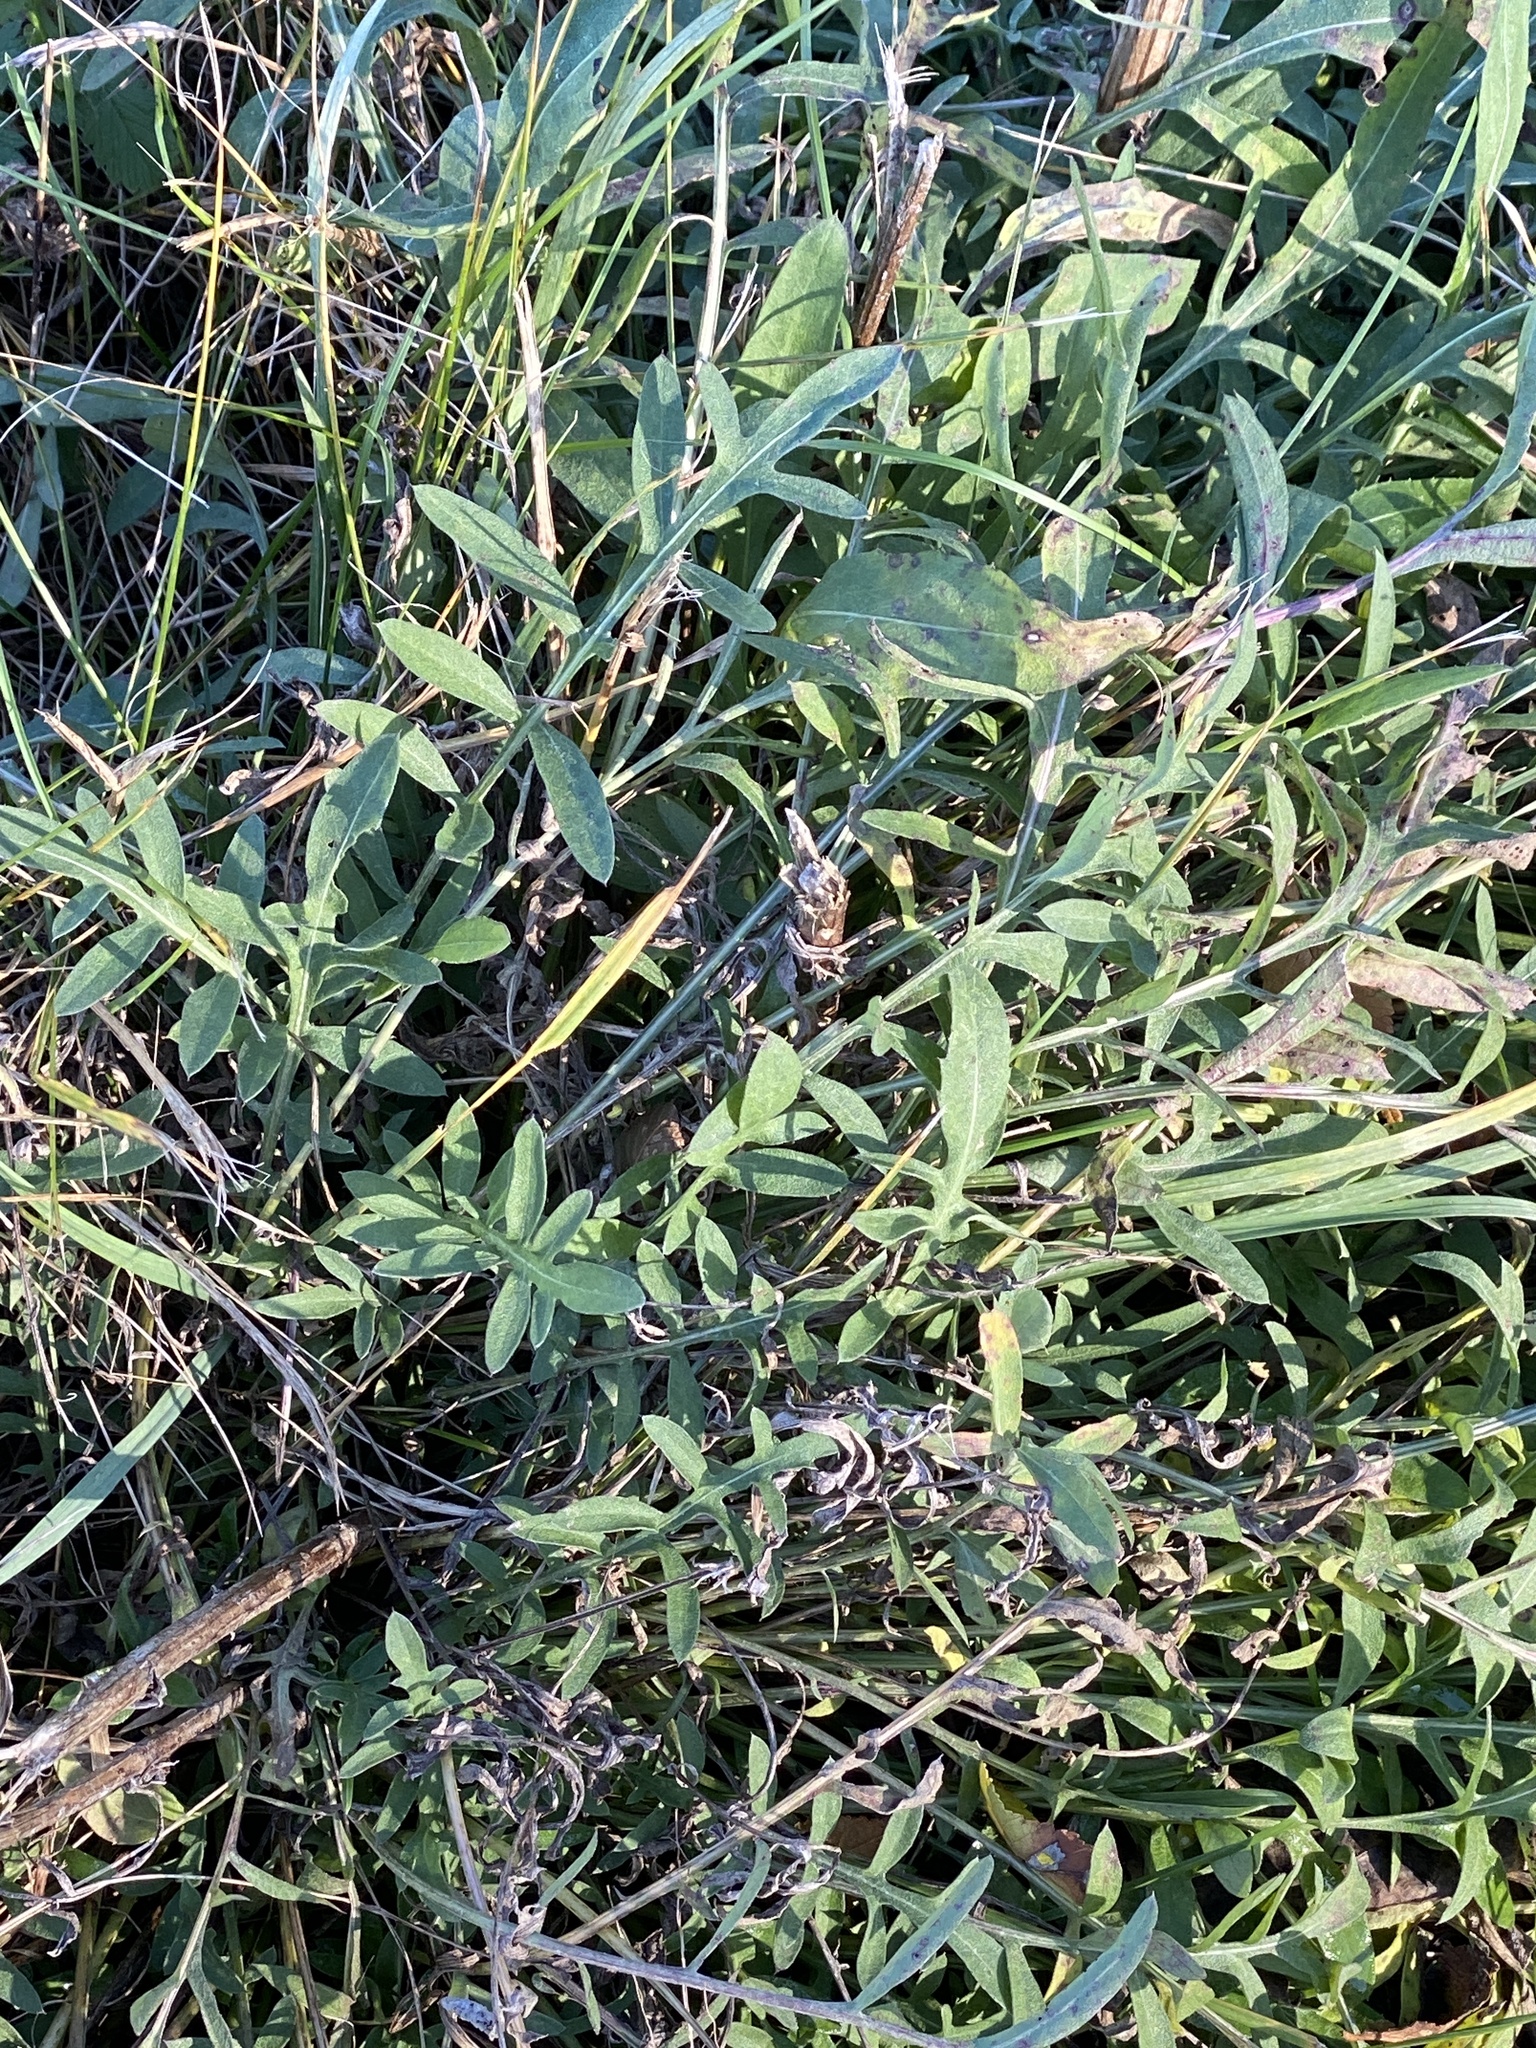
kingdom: Plantae
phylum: Tracheophyta
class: Magnoliopsida
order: Asterales
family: Asteraceae
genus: Centaurea
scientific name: Centaurea stoebe
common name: Spotted knapweed
